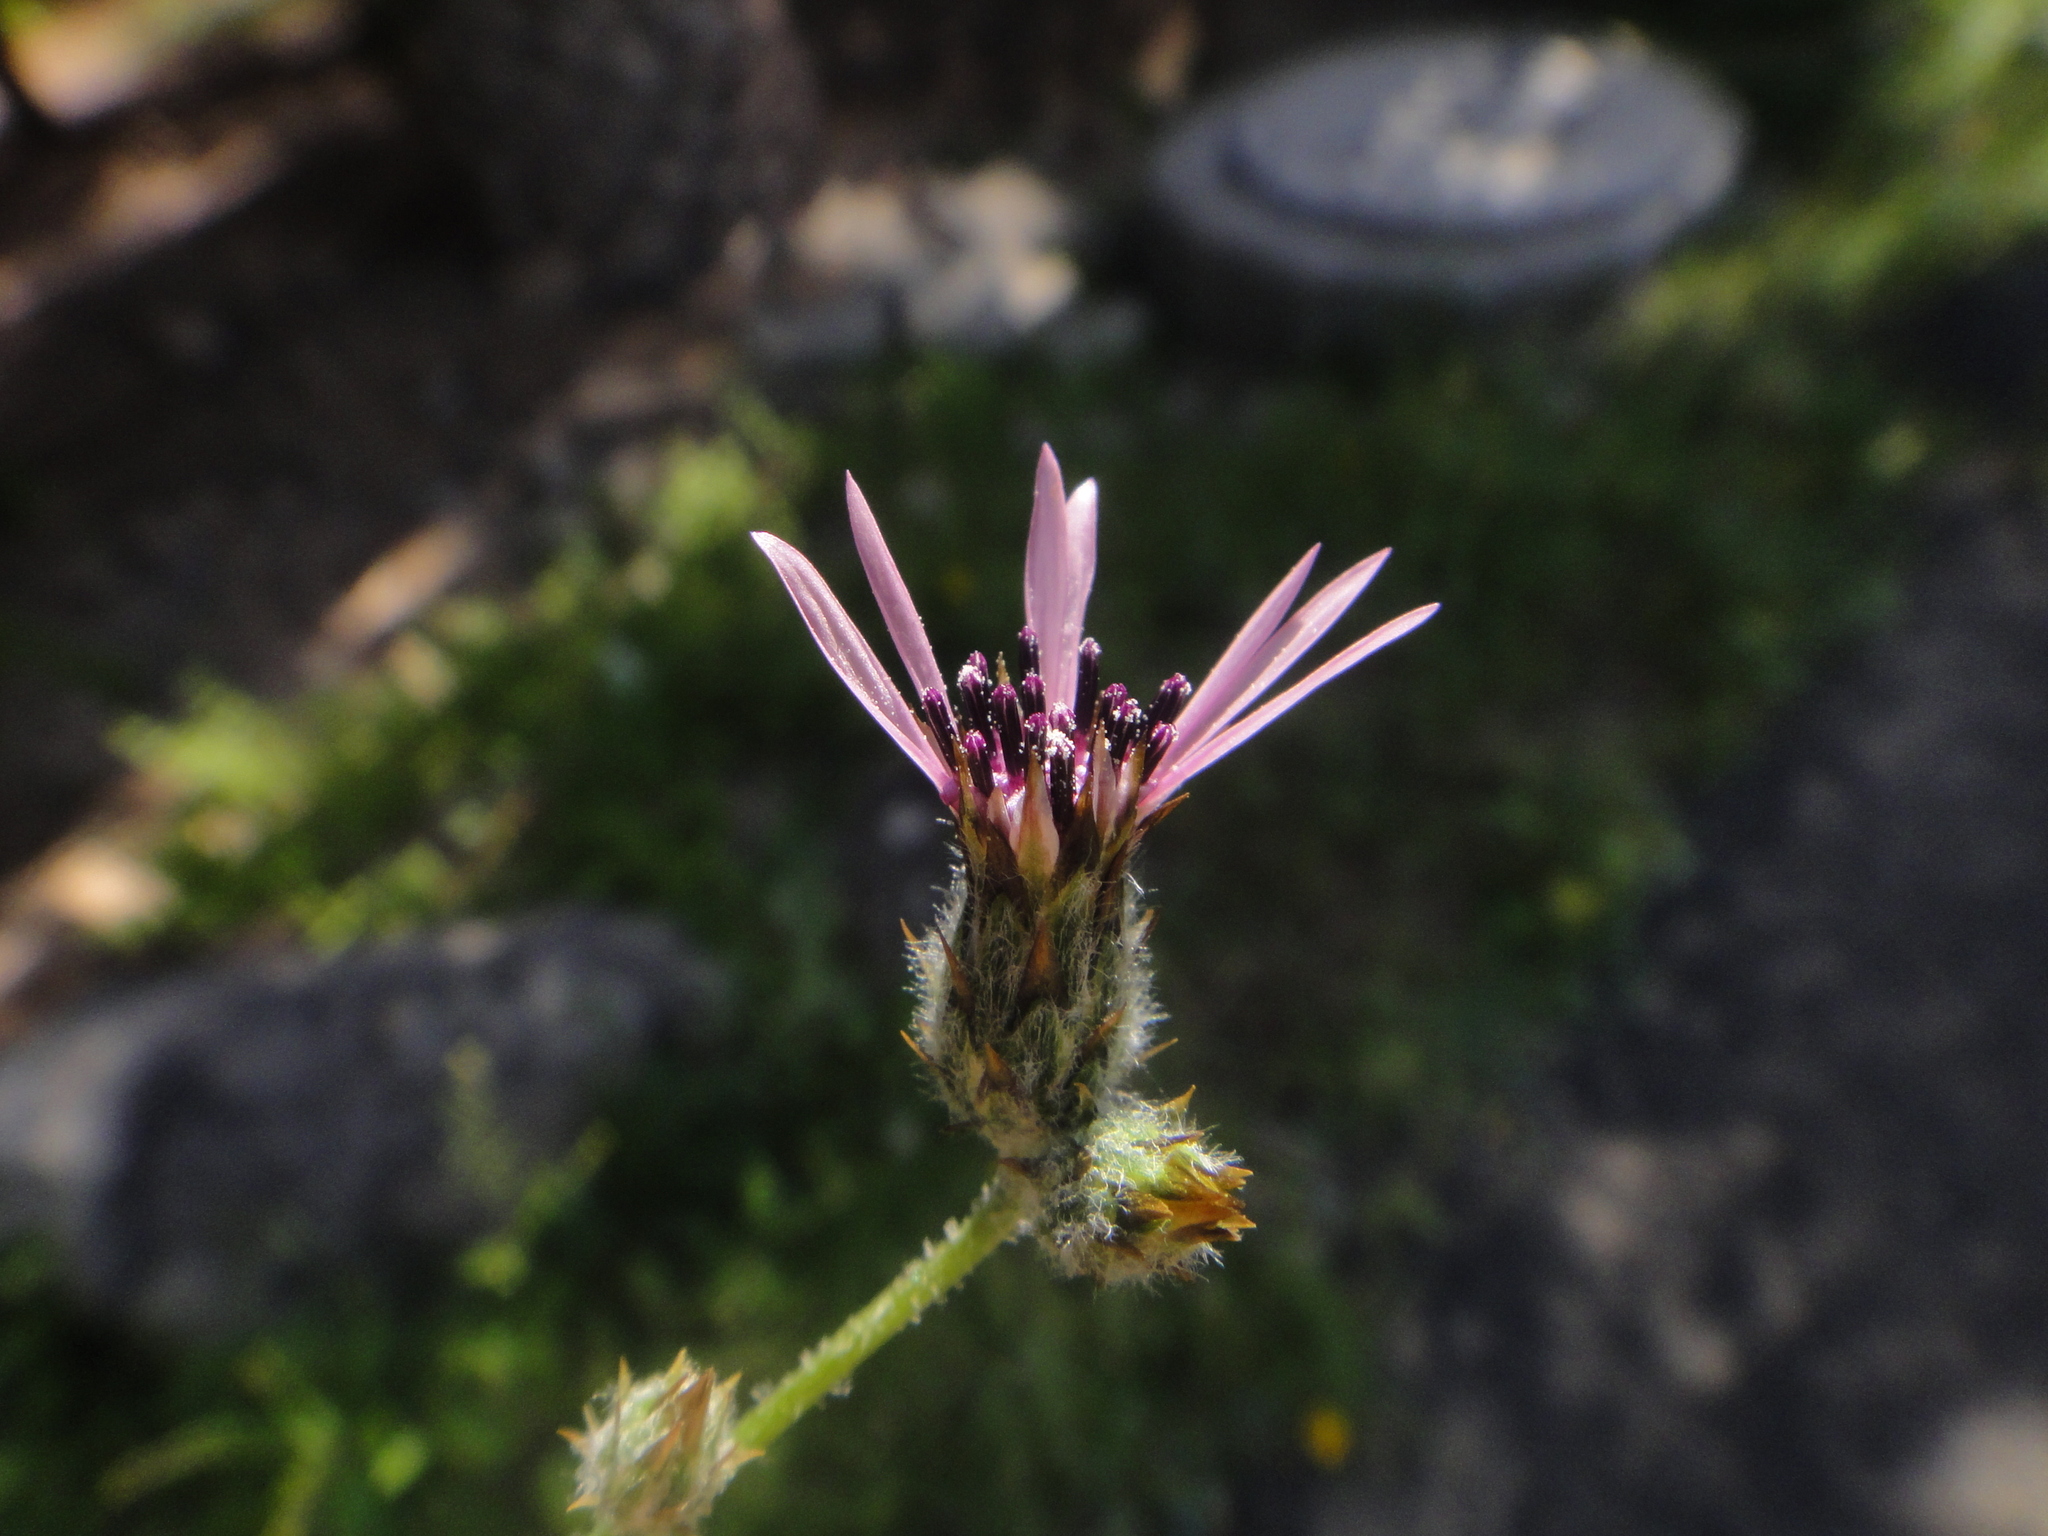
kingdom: Plantae
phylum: Tracheophyta
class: Magnoliopsida
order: Asterales
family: Asteraceae
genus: Volutaria
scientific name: Volutaria tubuliflora
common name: Desert knapweed
